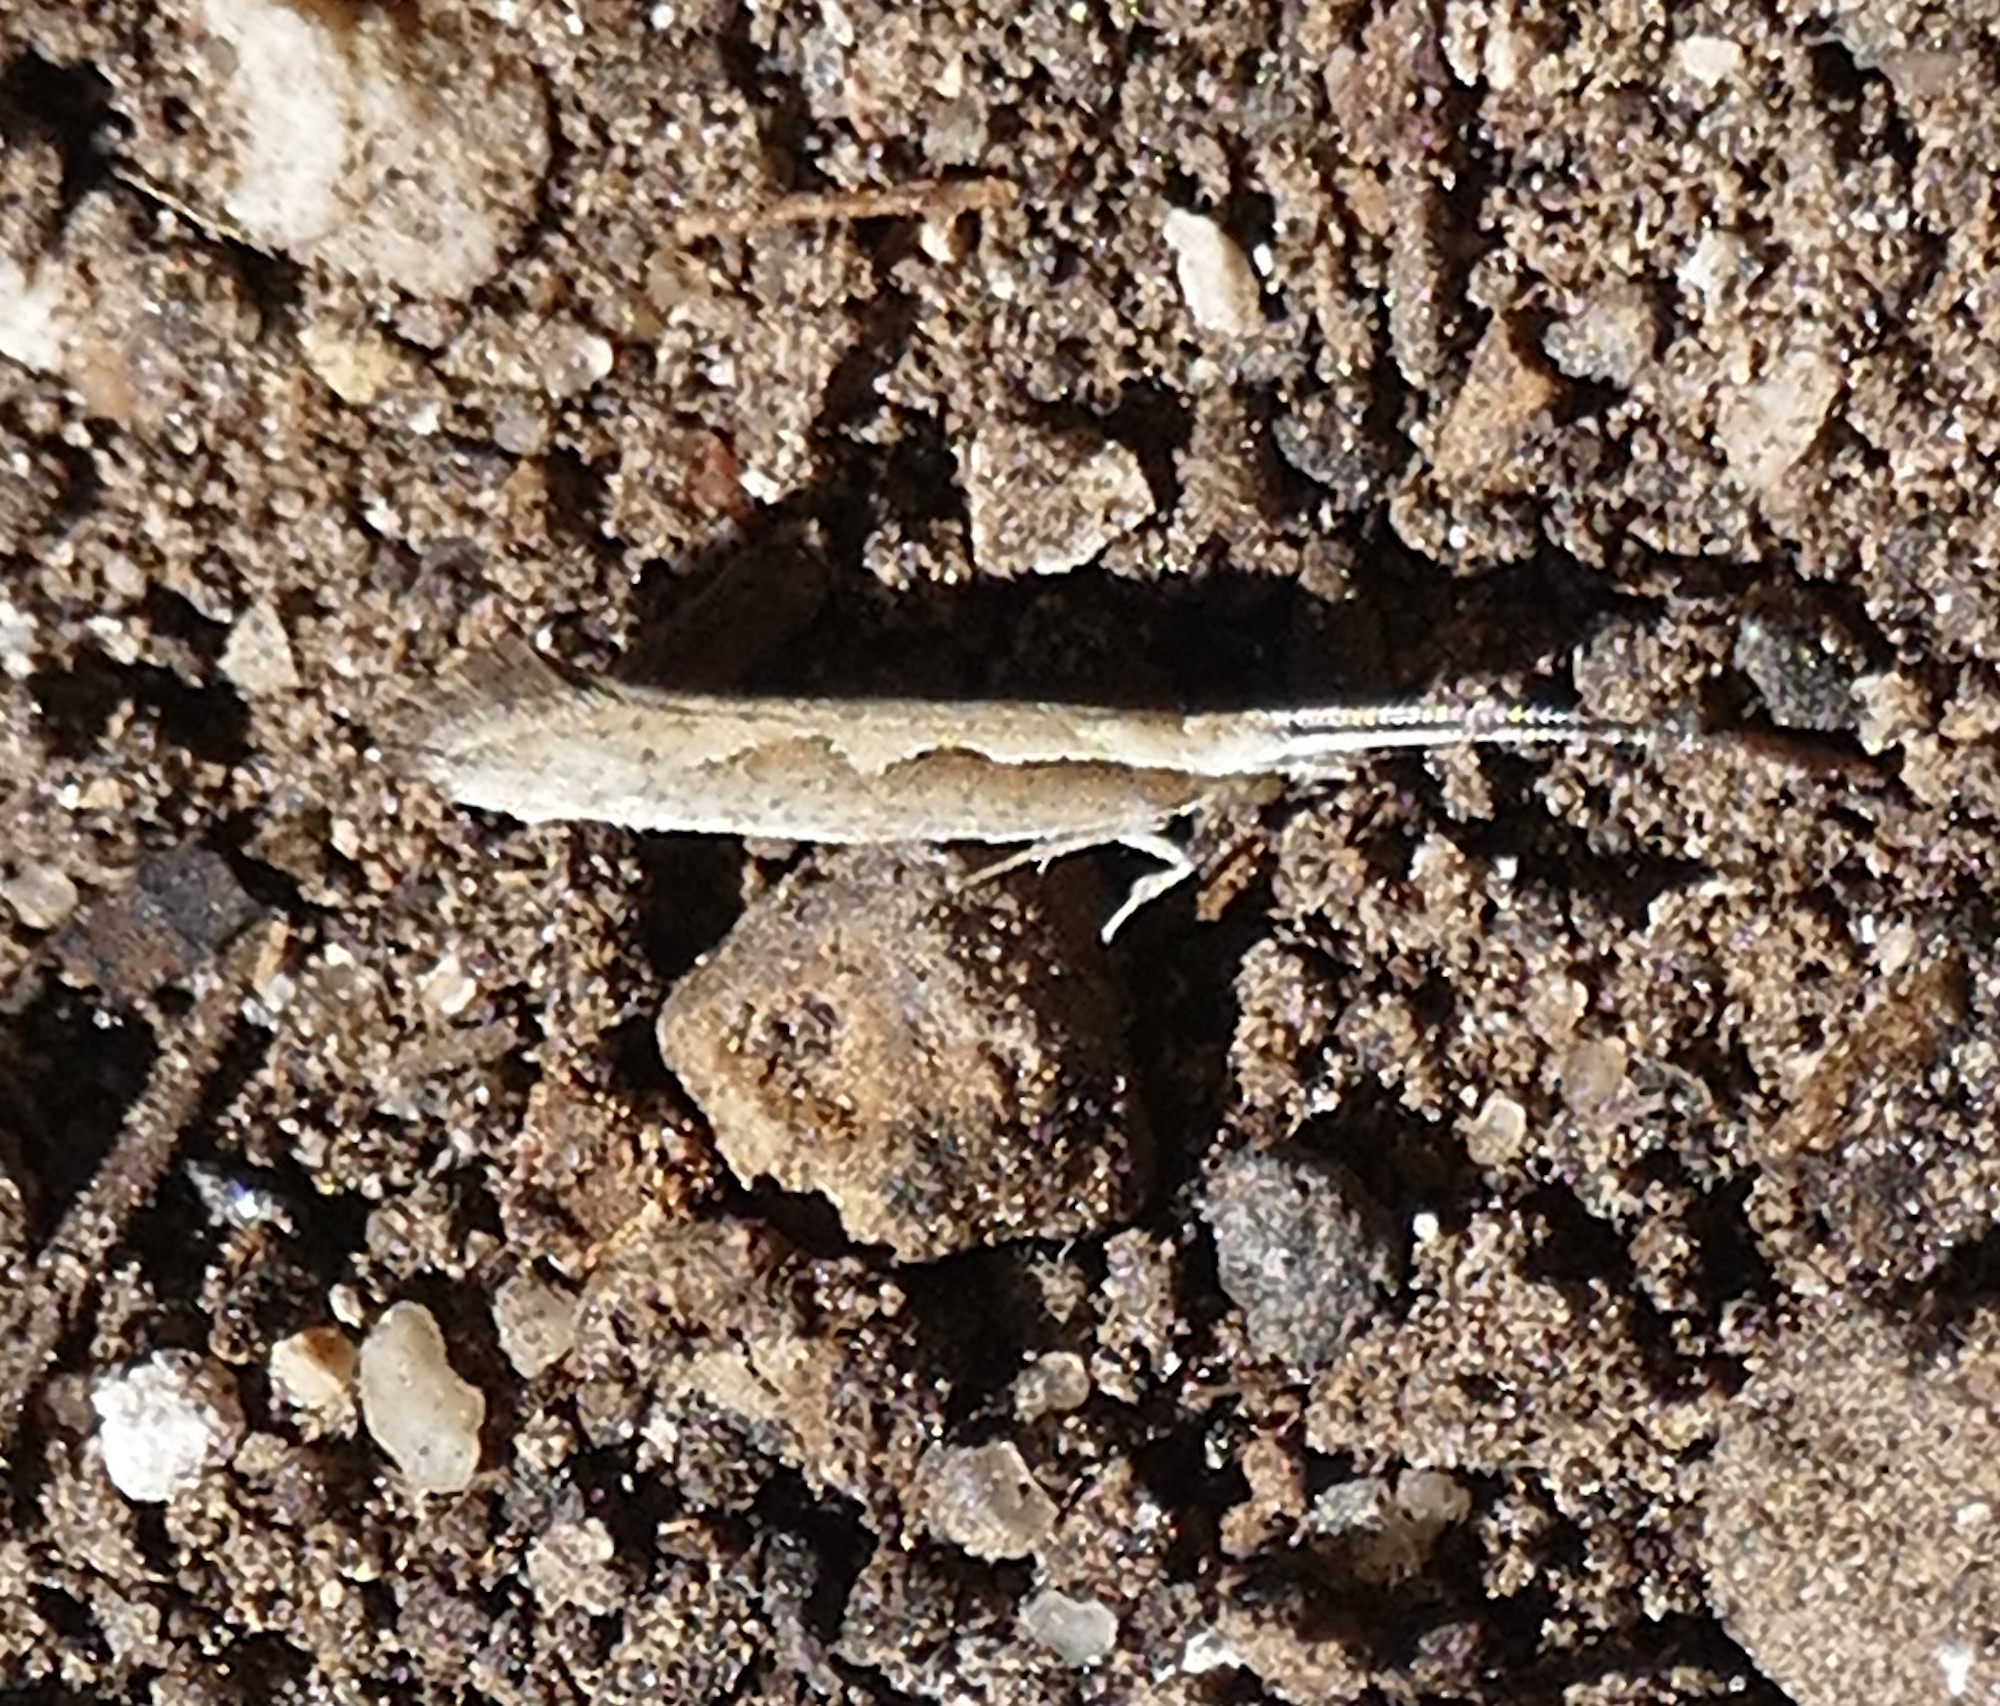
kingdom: Animalia
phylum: Arthropoda
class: Insecta
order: Lepidoptera
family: Plutellidae
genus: Plutella
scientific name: Plutella xylostella
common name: Diamond-back moth
